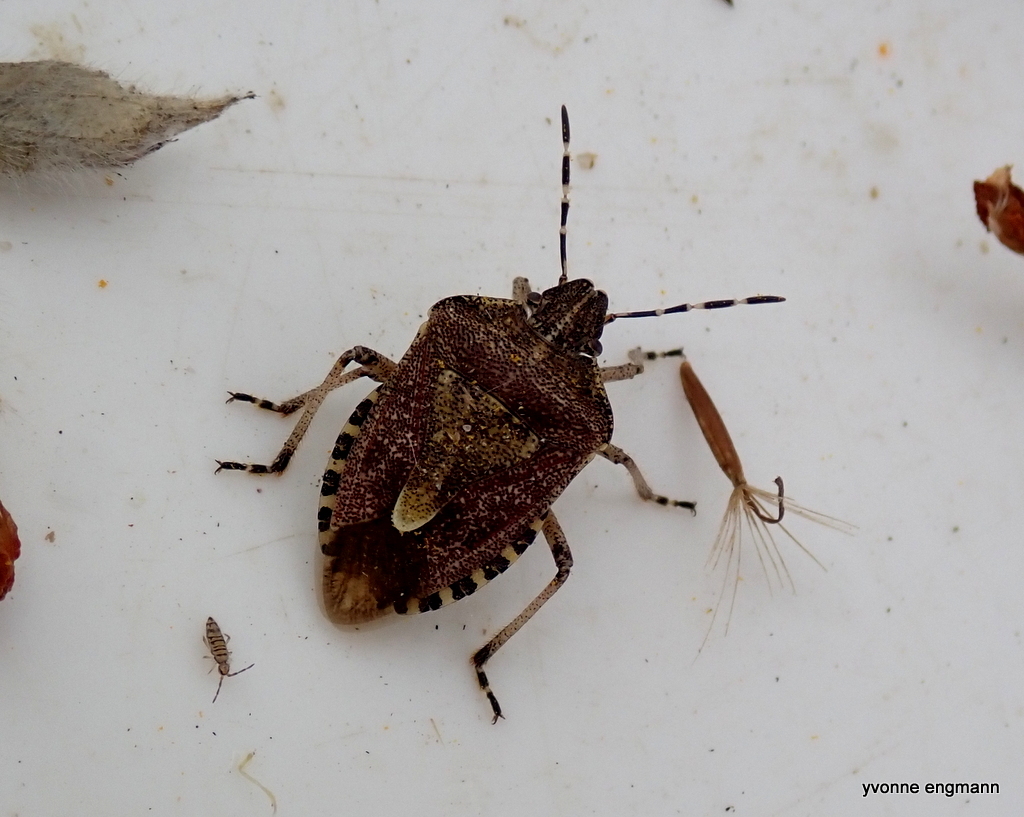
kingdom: Animalia
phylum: Arthropoda
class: Insecta
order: Hemiptera
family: Pentatomidae
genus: Dolycoris
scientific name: Dolycoris baccarum
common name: Sloe bug
